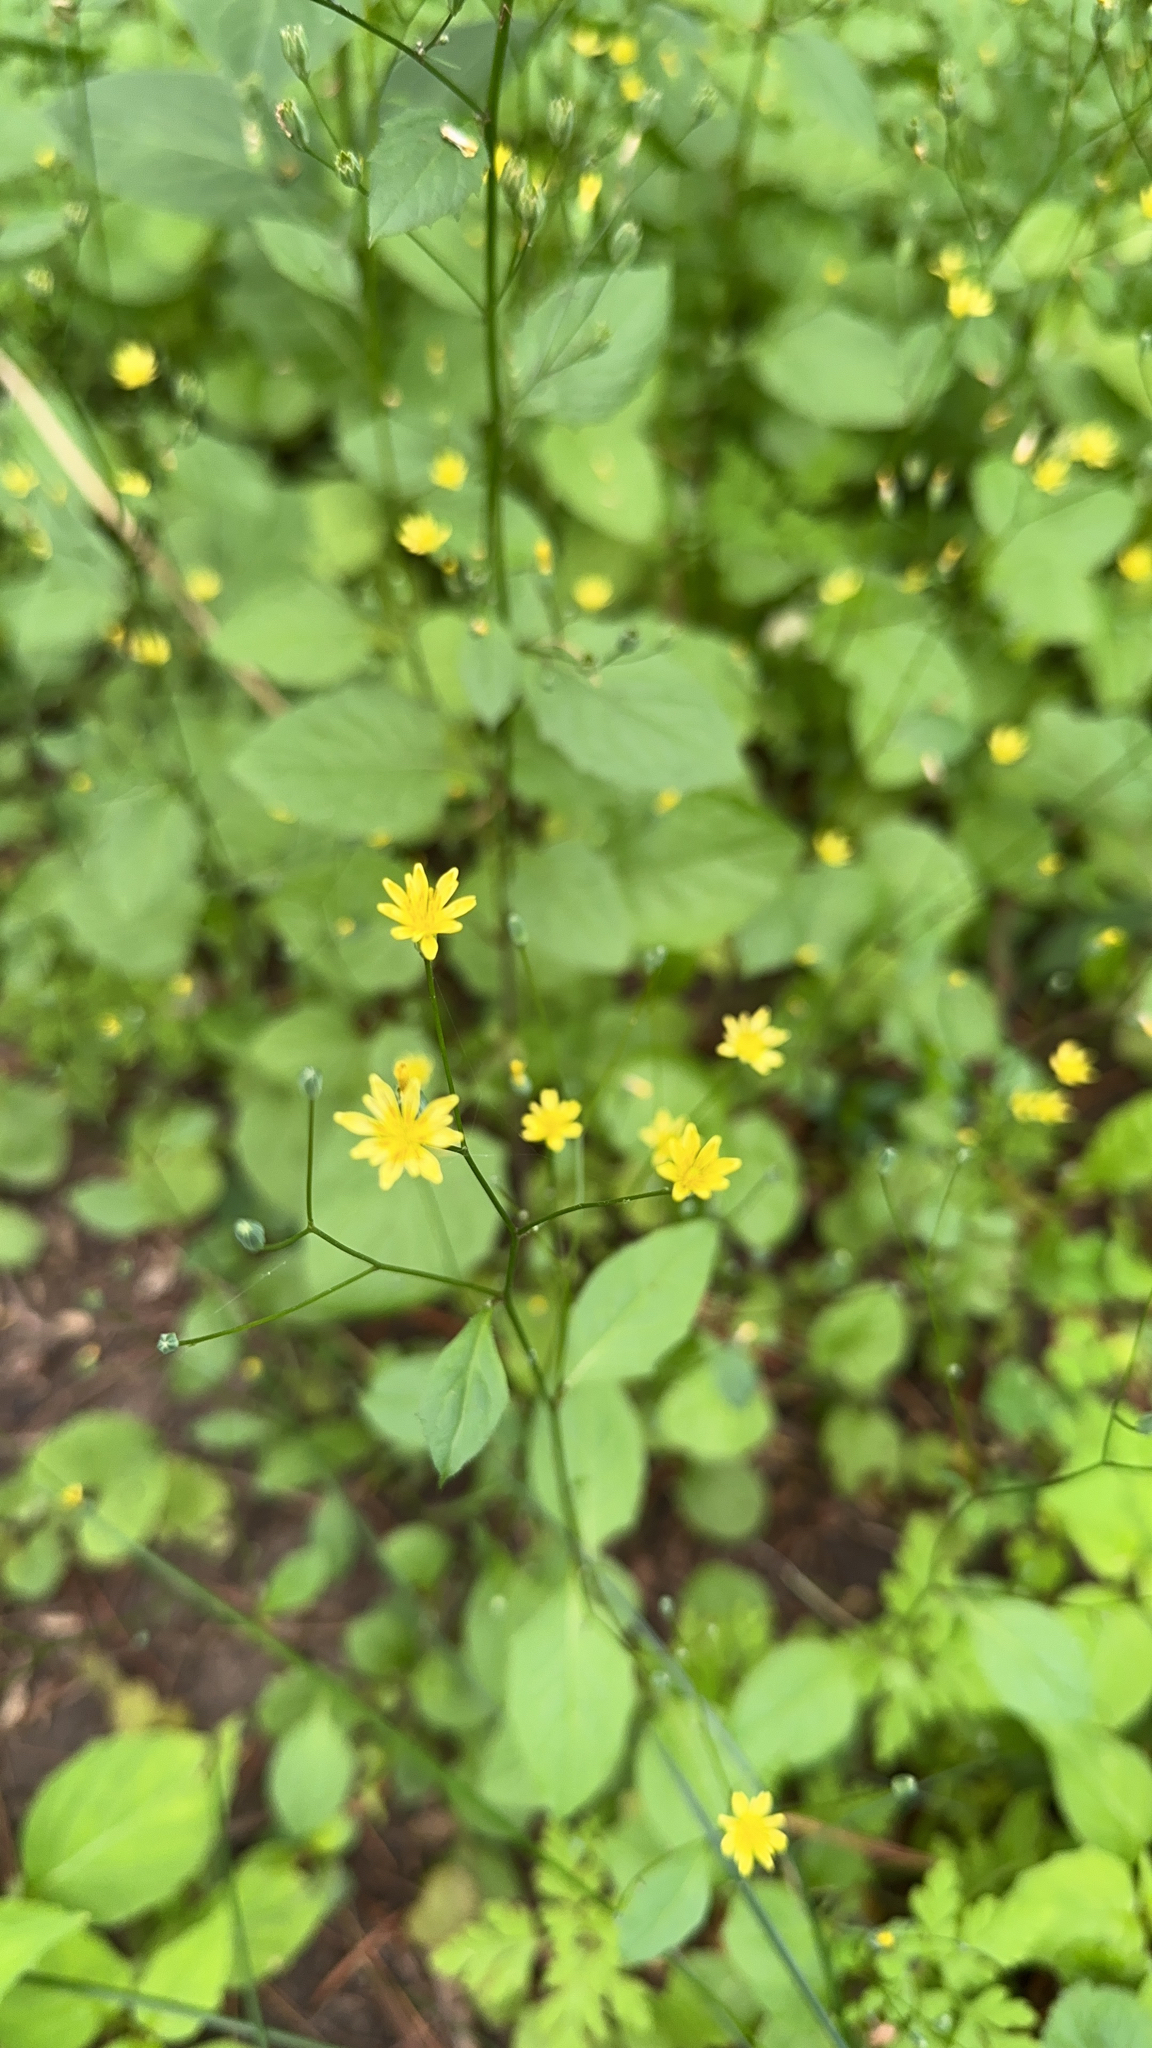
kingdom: Plantae
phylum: Tracheophyta
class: Magnoliopsida
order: Asterales
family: Asteraceae
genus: Lapsana
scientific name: Lapsana communis
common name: Nipplewort
